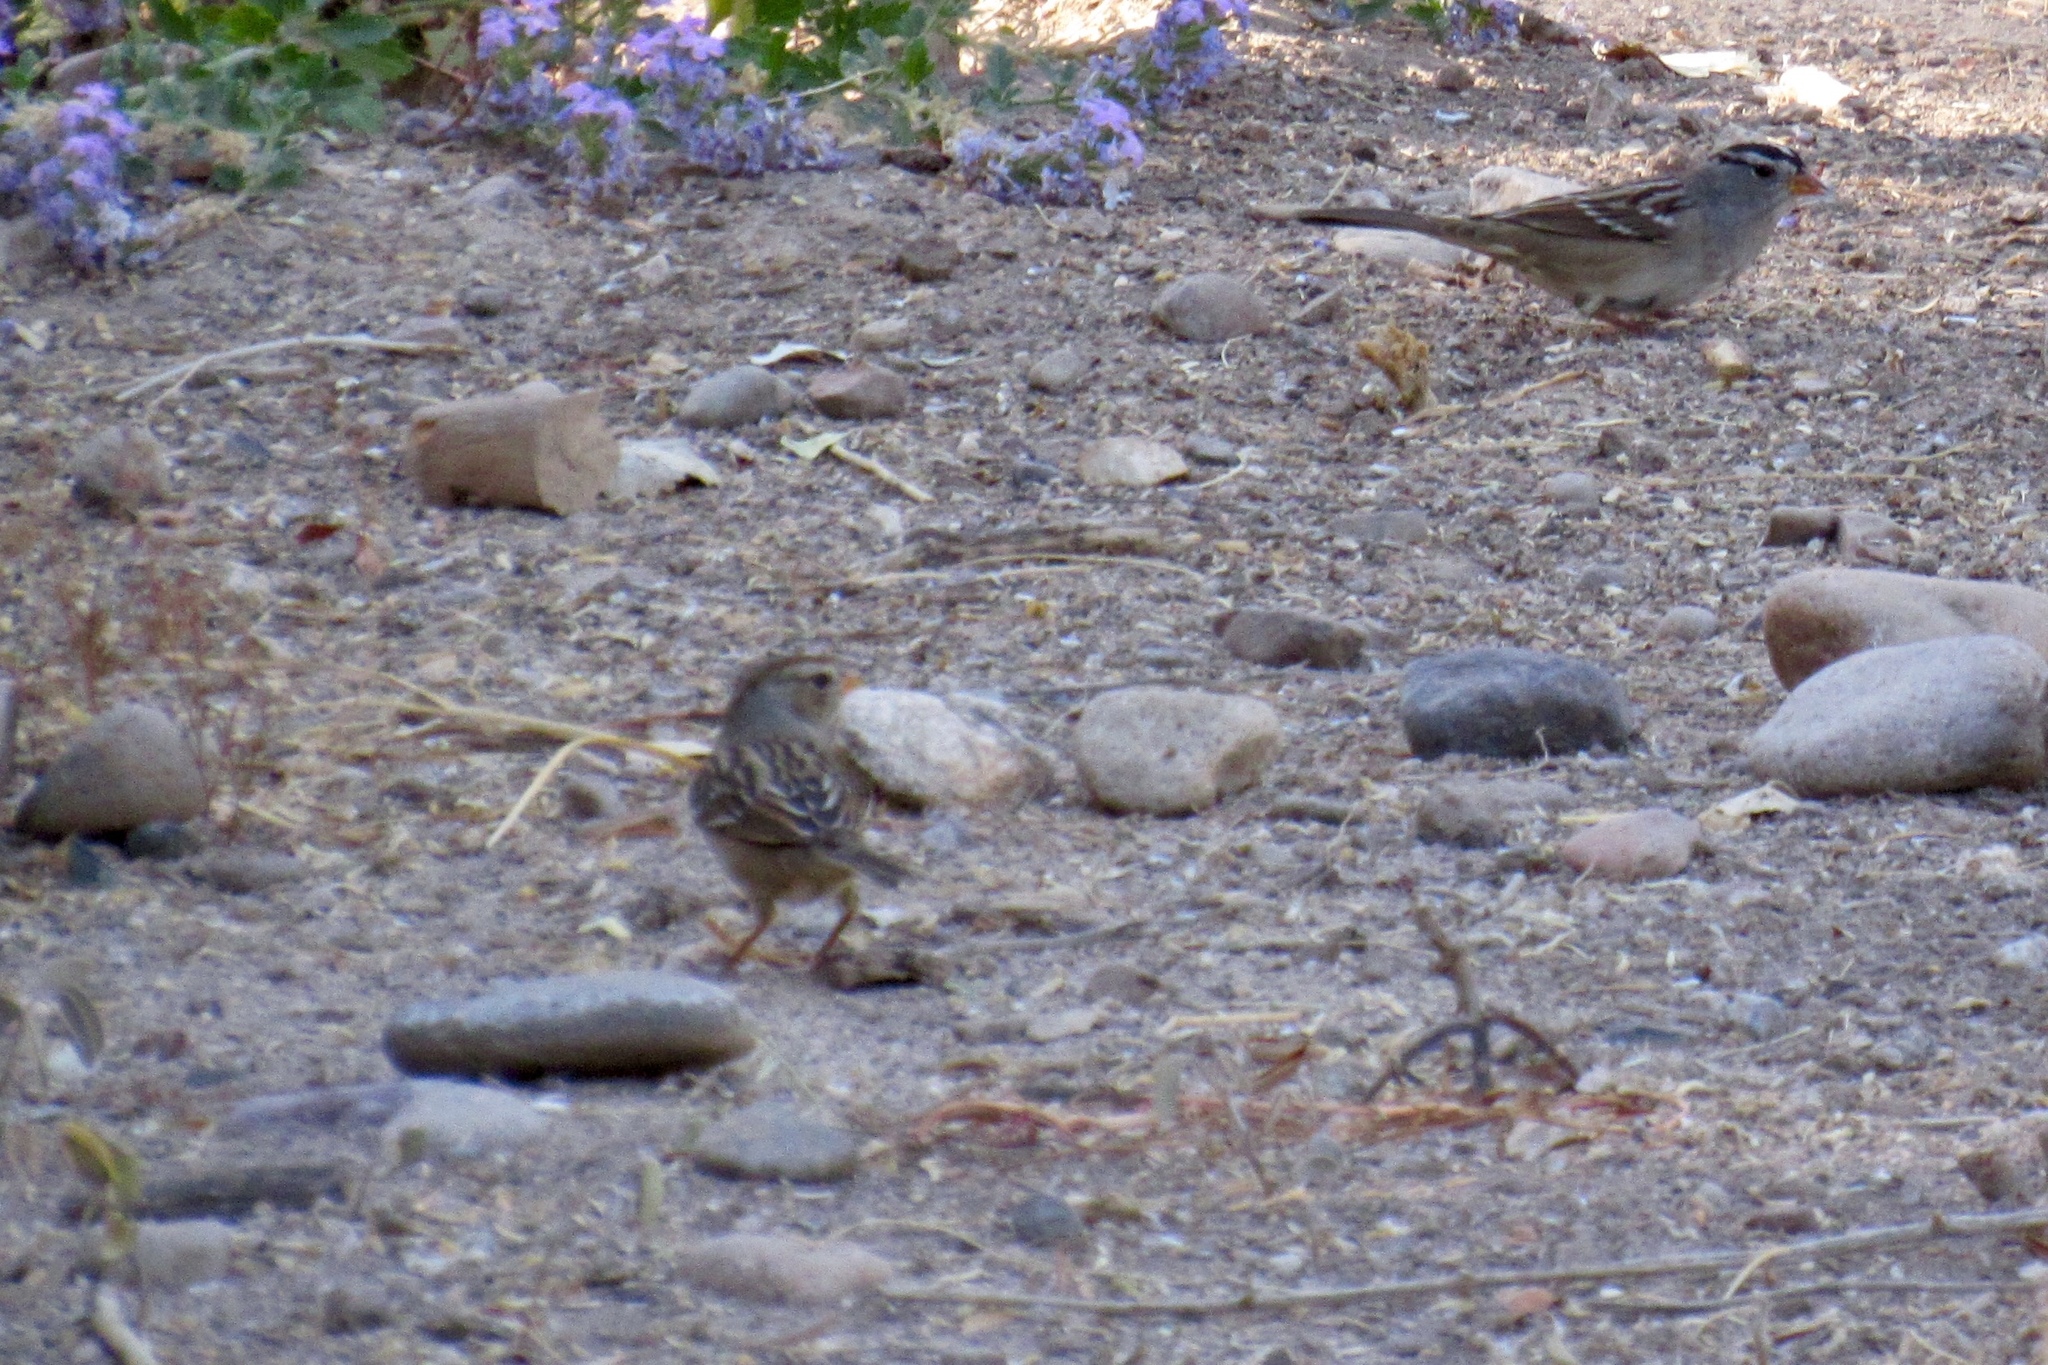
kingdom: Animalia
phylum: Chordata
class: Aves
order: Passeriformes
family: Passerellidae
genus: Zonotrichia
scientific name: Zonotrichia leucophrys
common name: White-crowned sparrow
